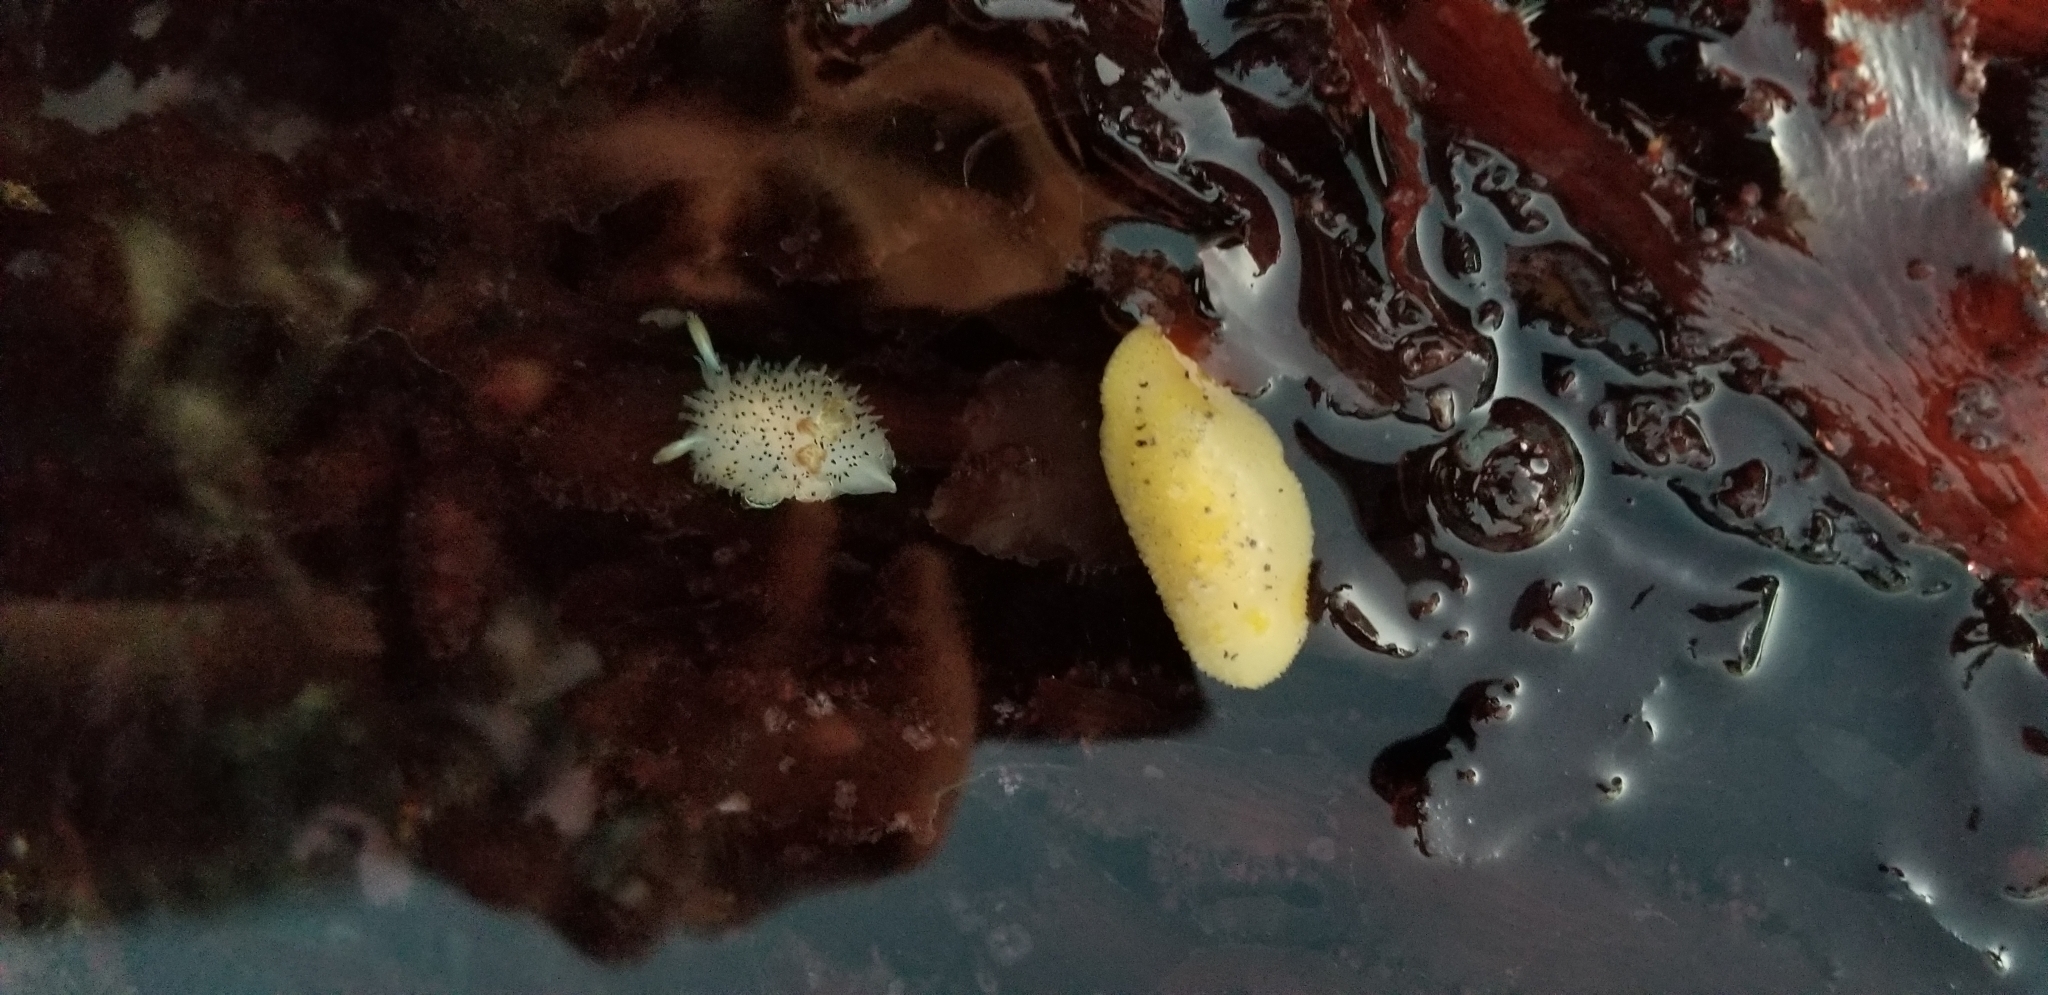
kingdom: Animalia
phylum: Mollusca
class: Gastropoda
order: Nudibranchia
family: Dorididae
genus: Doris
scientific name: Doris montereyensis
